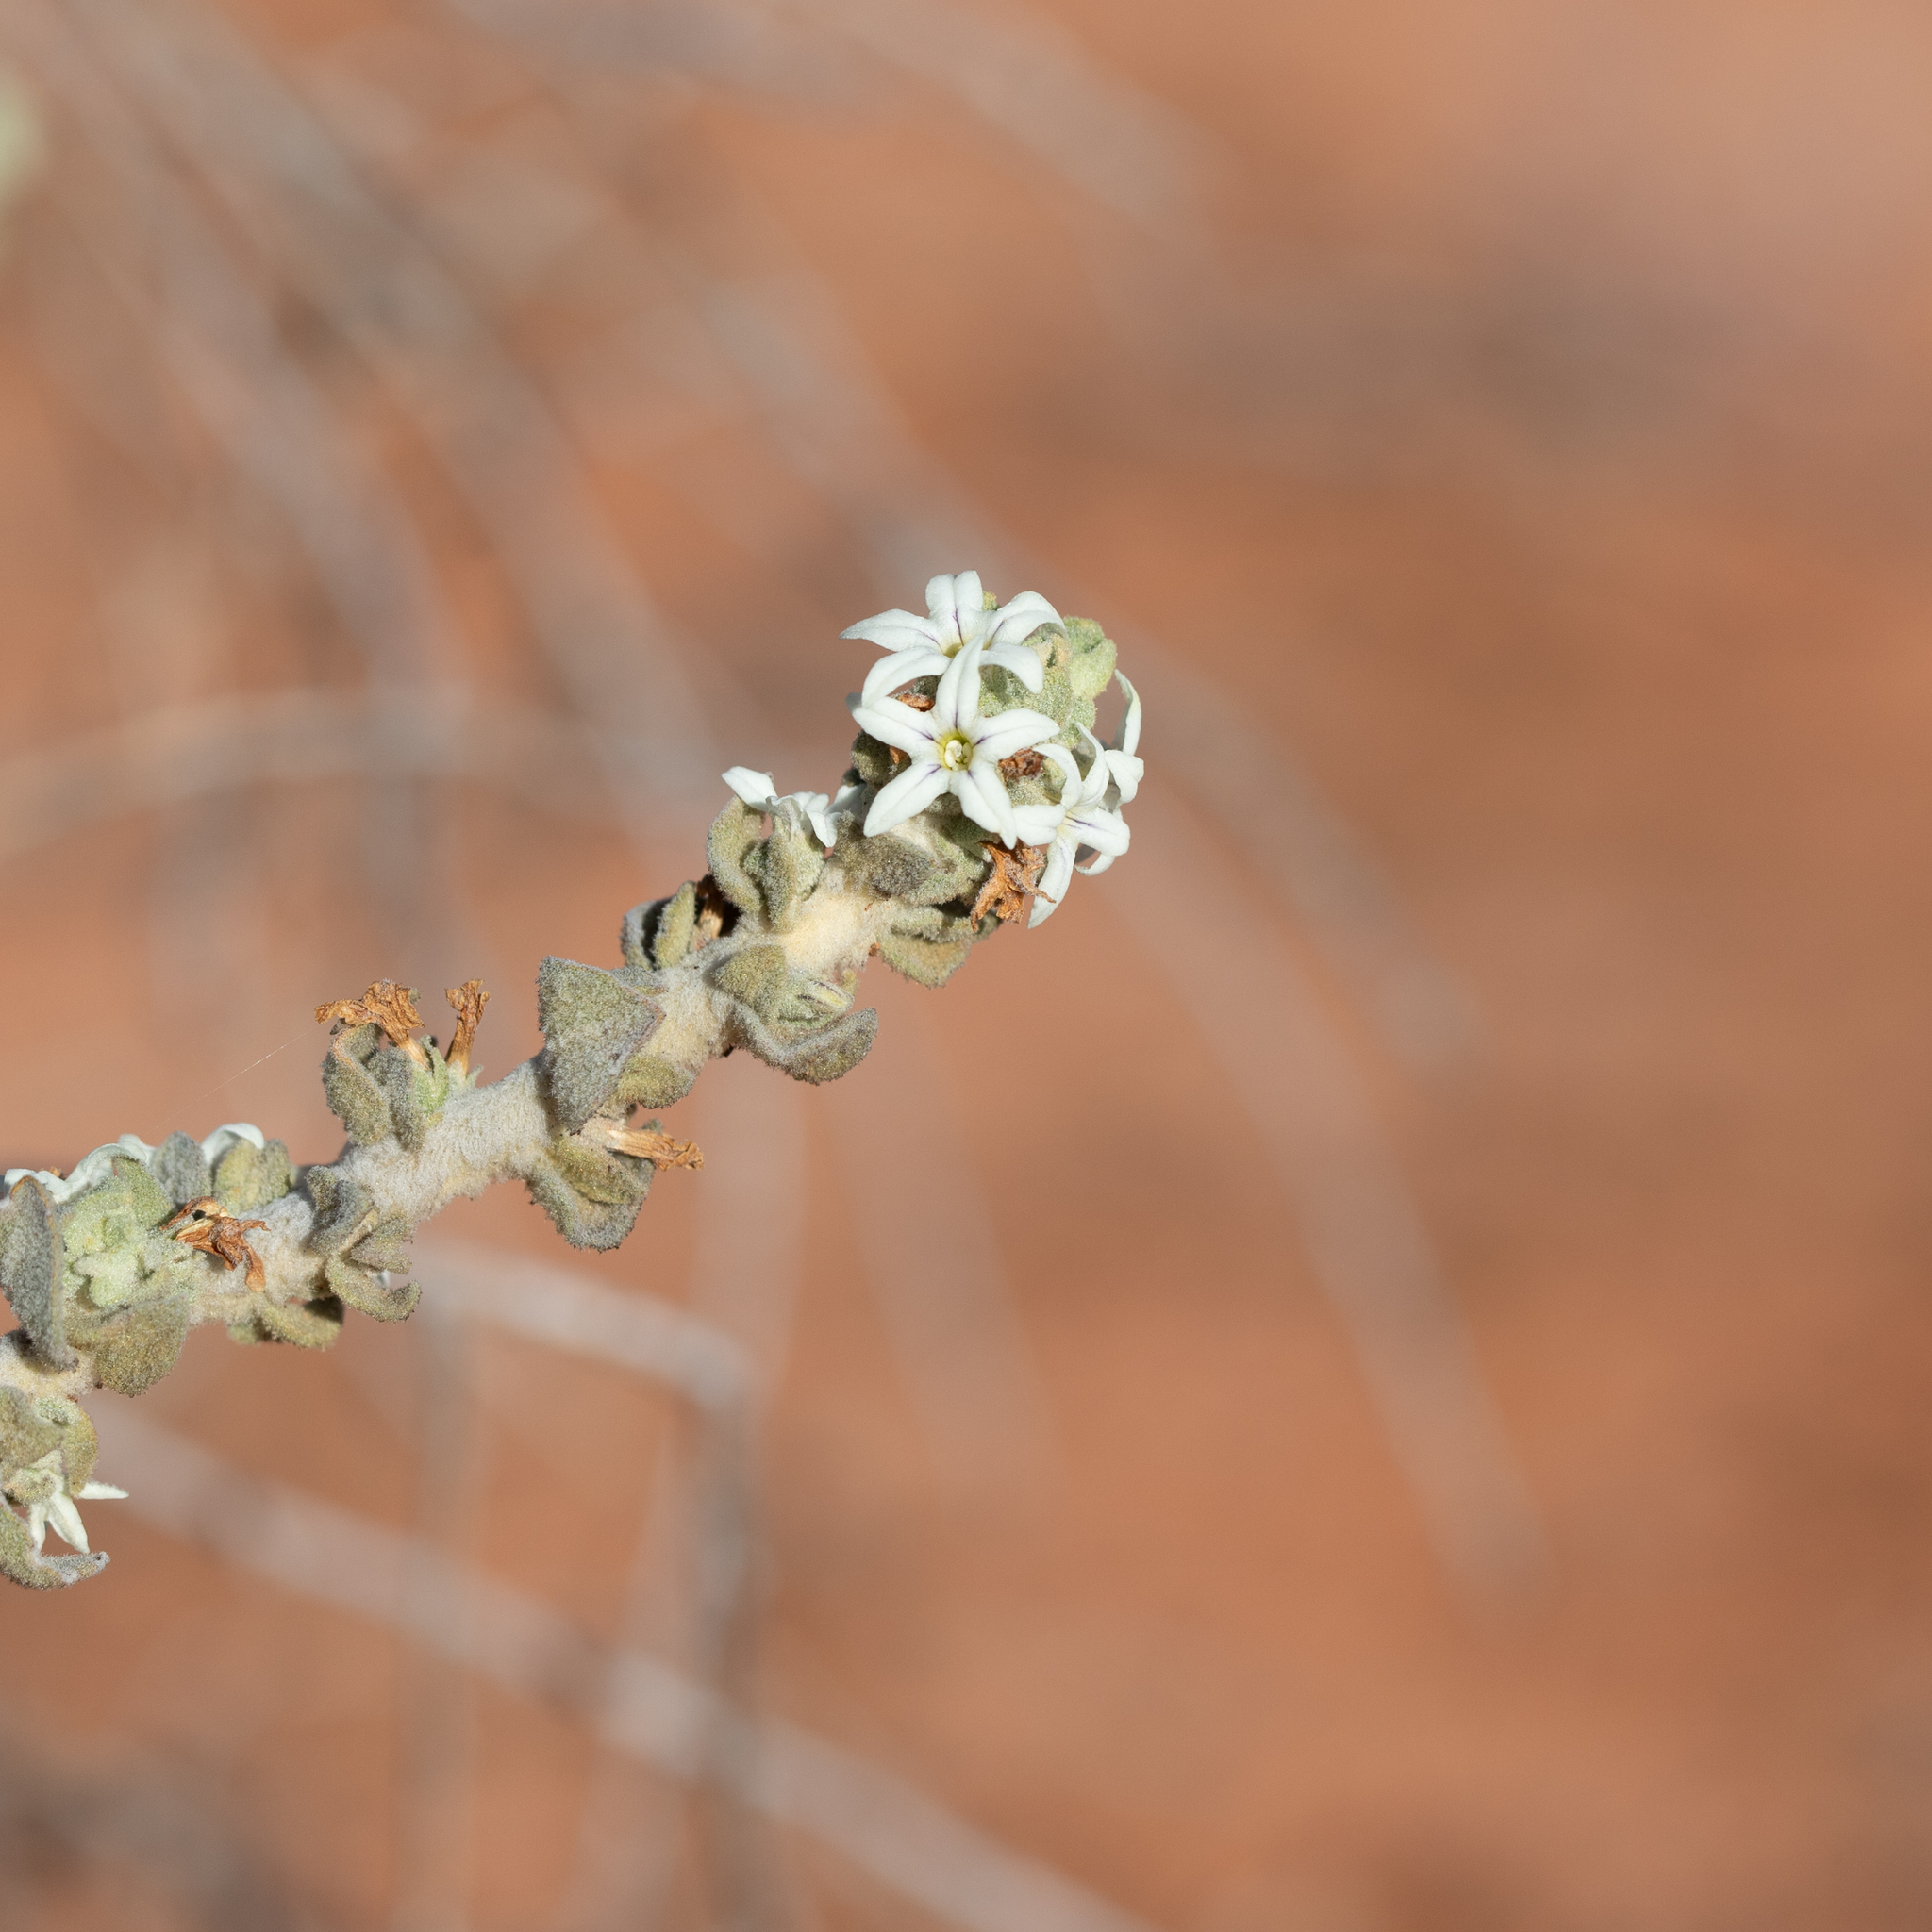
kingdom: Plantae
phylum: Tracheophyta
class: Magnoliopsida
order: Solanales
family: Solanaceae
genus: Grammosolen
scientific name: Grammosolen dixonii
